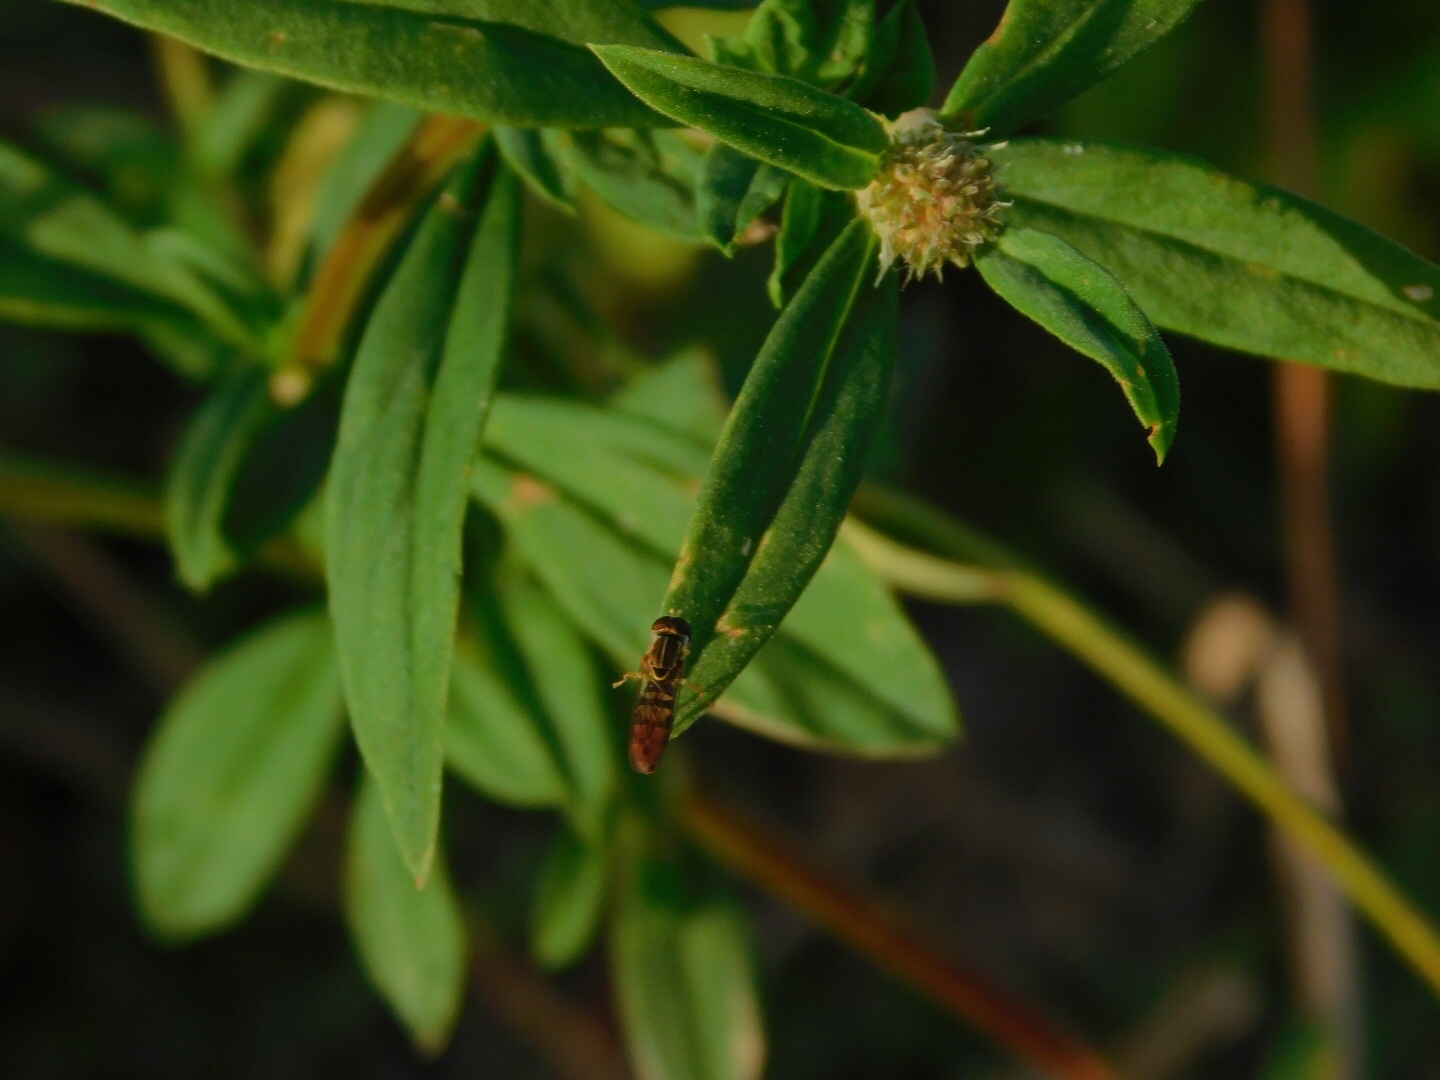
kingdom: Animalia
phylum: Arthropoda
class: Insecta
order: Diptera
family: Syrphidae
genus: Toxomerus
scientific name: Toxomerus floralis
